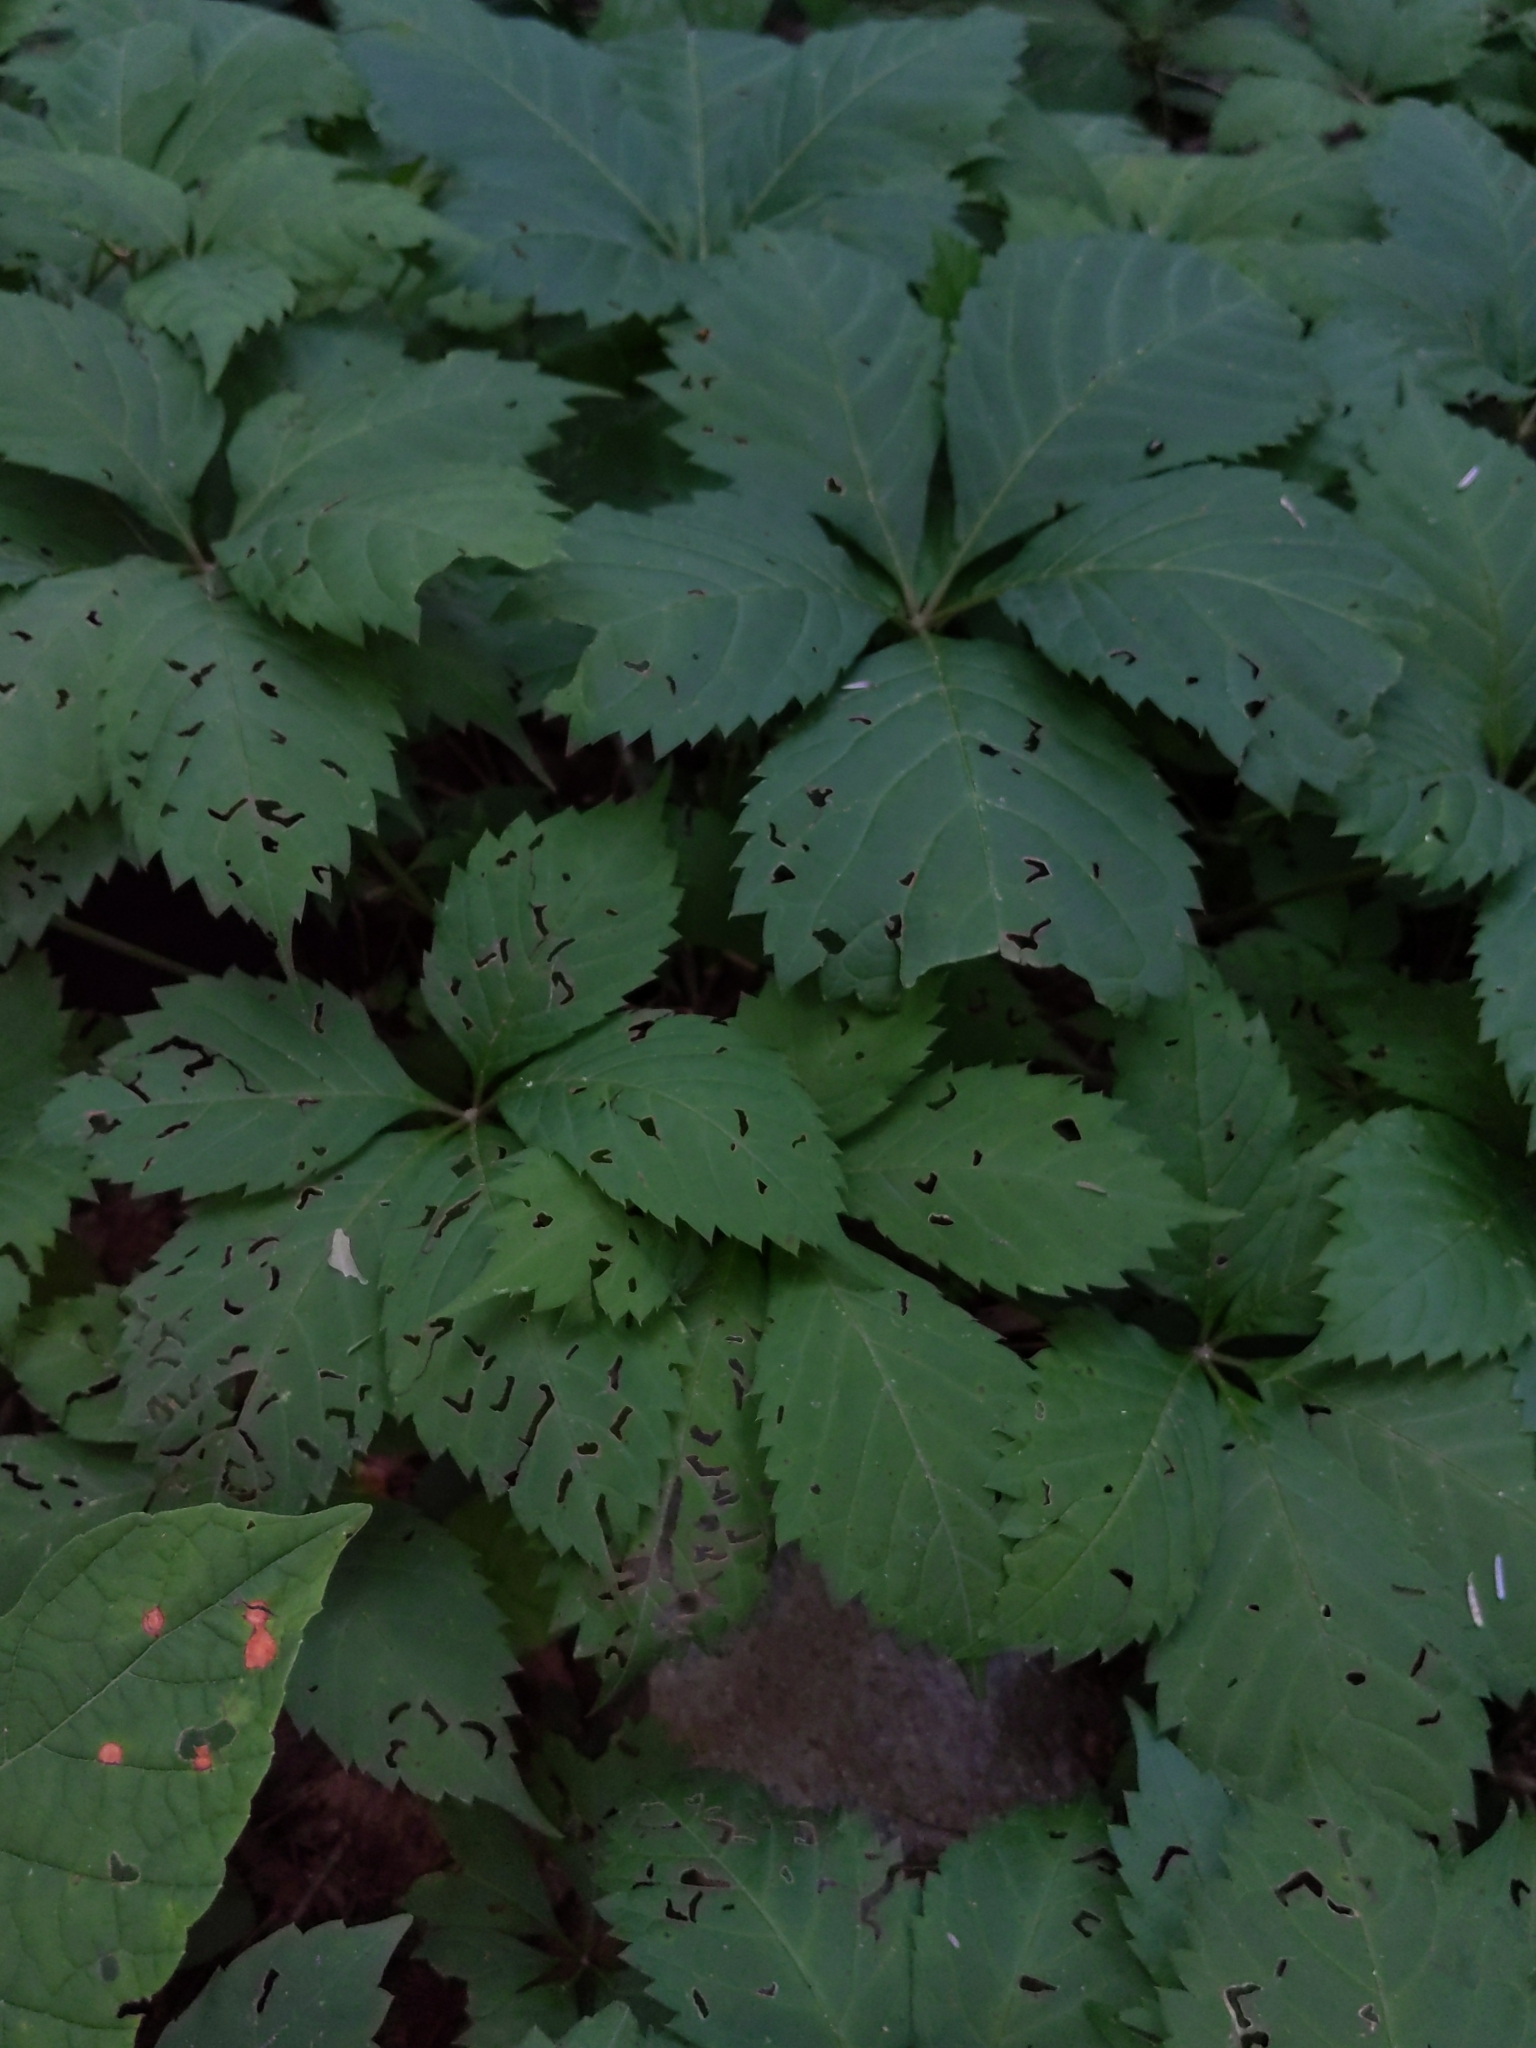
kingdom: Plantae
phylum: Tracheophyta
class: Magnoliopsida
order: Vitales
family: Vitaceae
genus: Parthenocissus
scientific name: Parthenocissus quinquefolia
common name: Virginia-creeper
